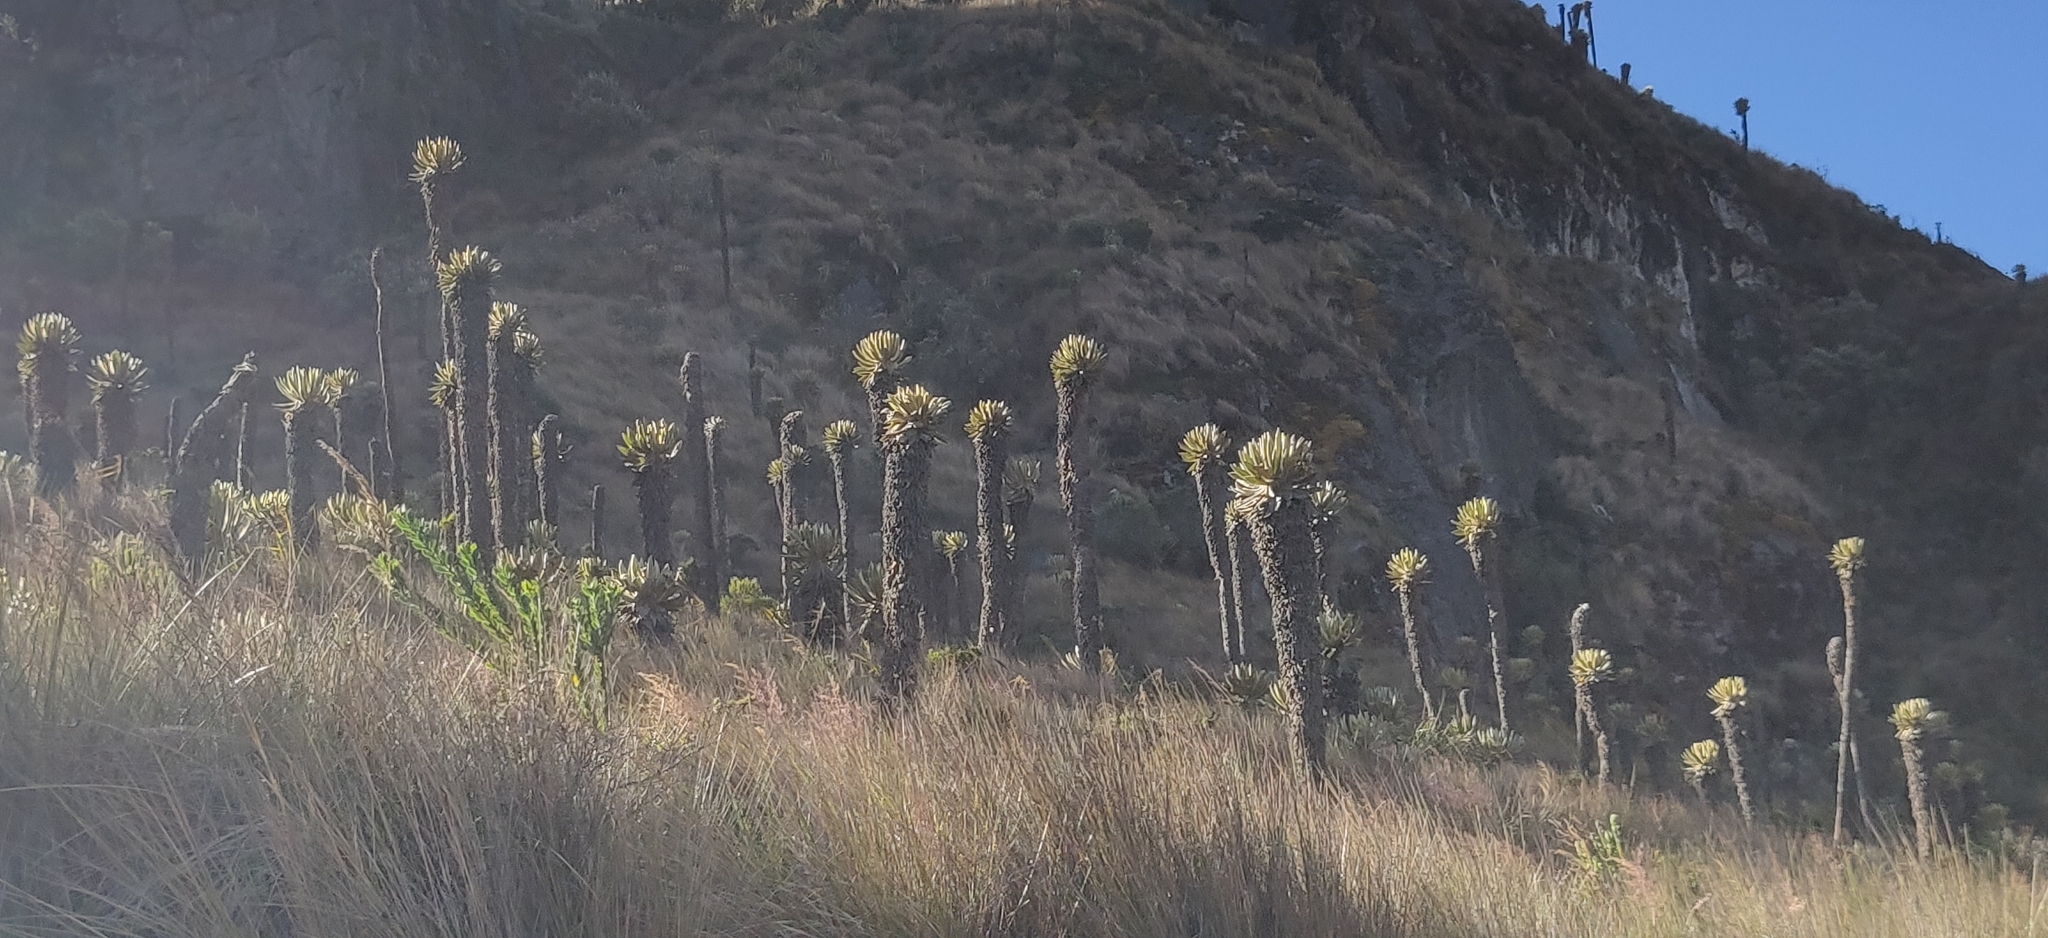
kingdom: Plantae
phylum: Tracheophyta
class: Magnoliopsida
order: Asterales
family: Asteraceae
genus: Espeletia
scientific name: Espeletia hartwegiana
